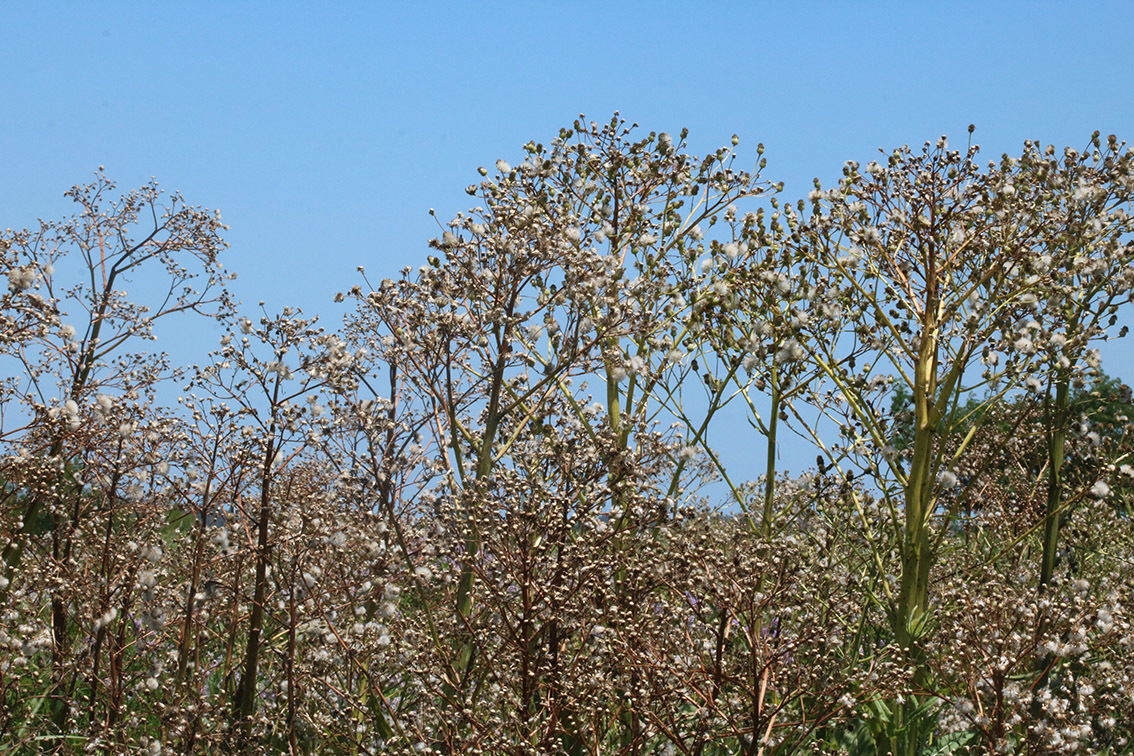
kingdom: Plantae
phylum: Tracheophyta
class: Magnoliopsida
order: Asterales
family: Asteraceae
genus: Senecio
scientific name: Senecio bonariensis
